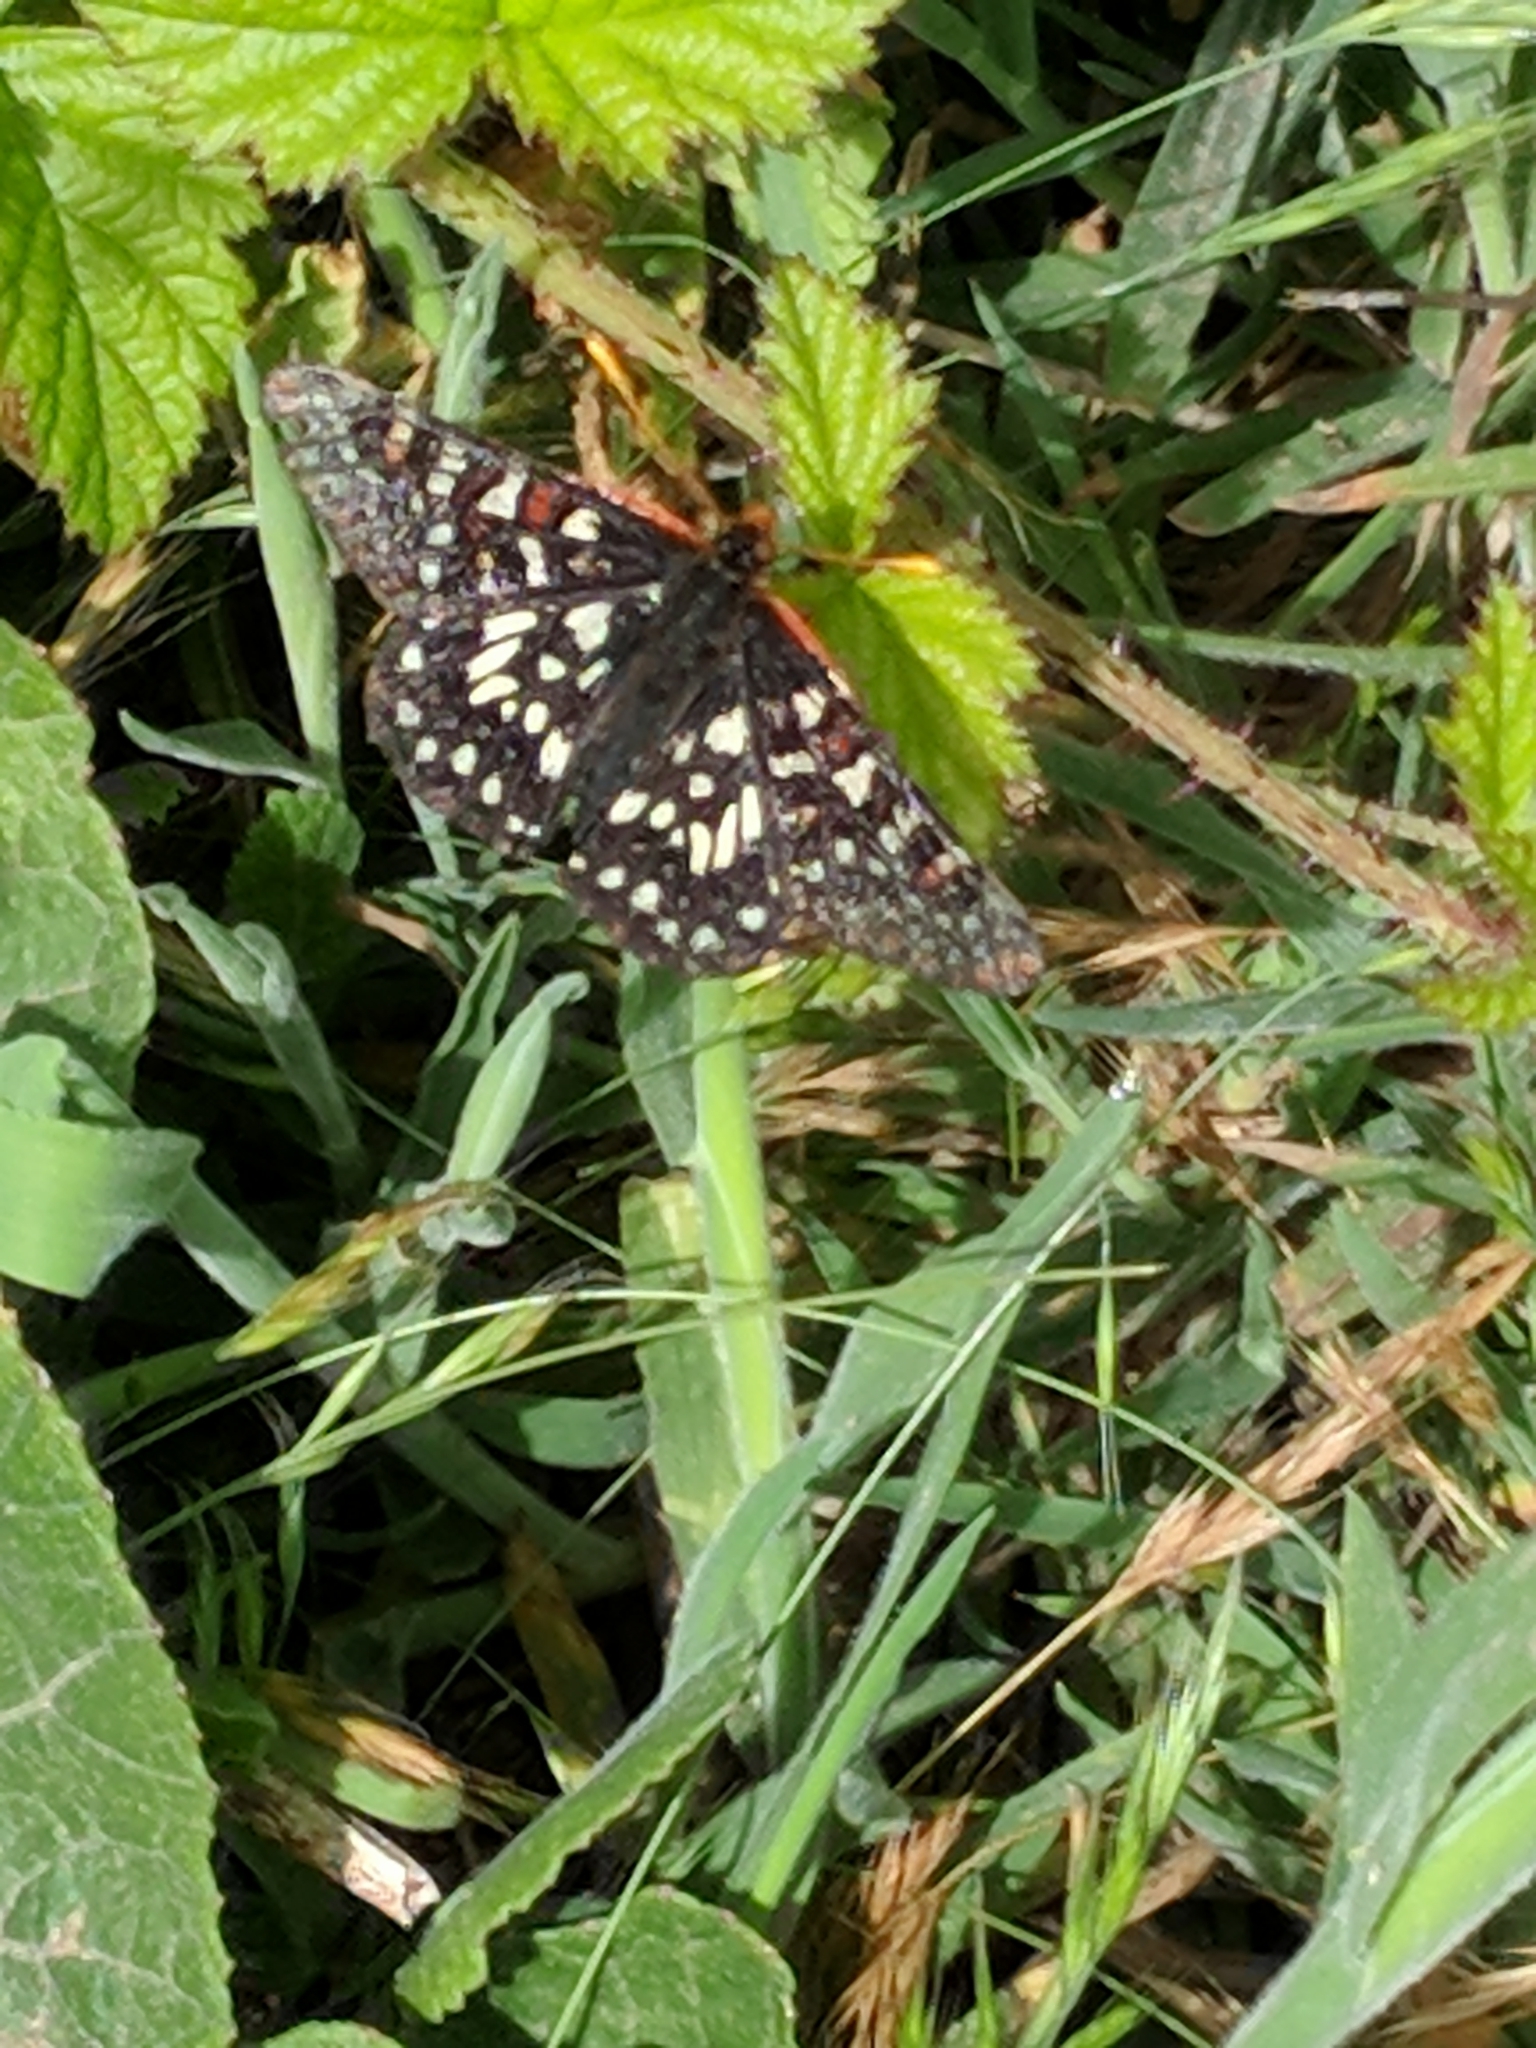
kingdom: Animalia
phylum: Arthropoda
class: Insecta
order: Lepidoptera
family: Nymphalidae
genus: Occidryas
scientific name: Occidryas chalcedona
